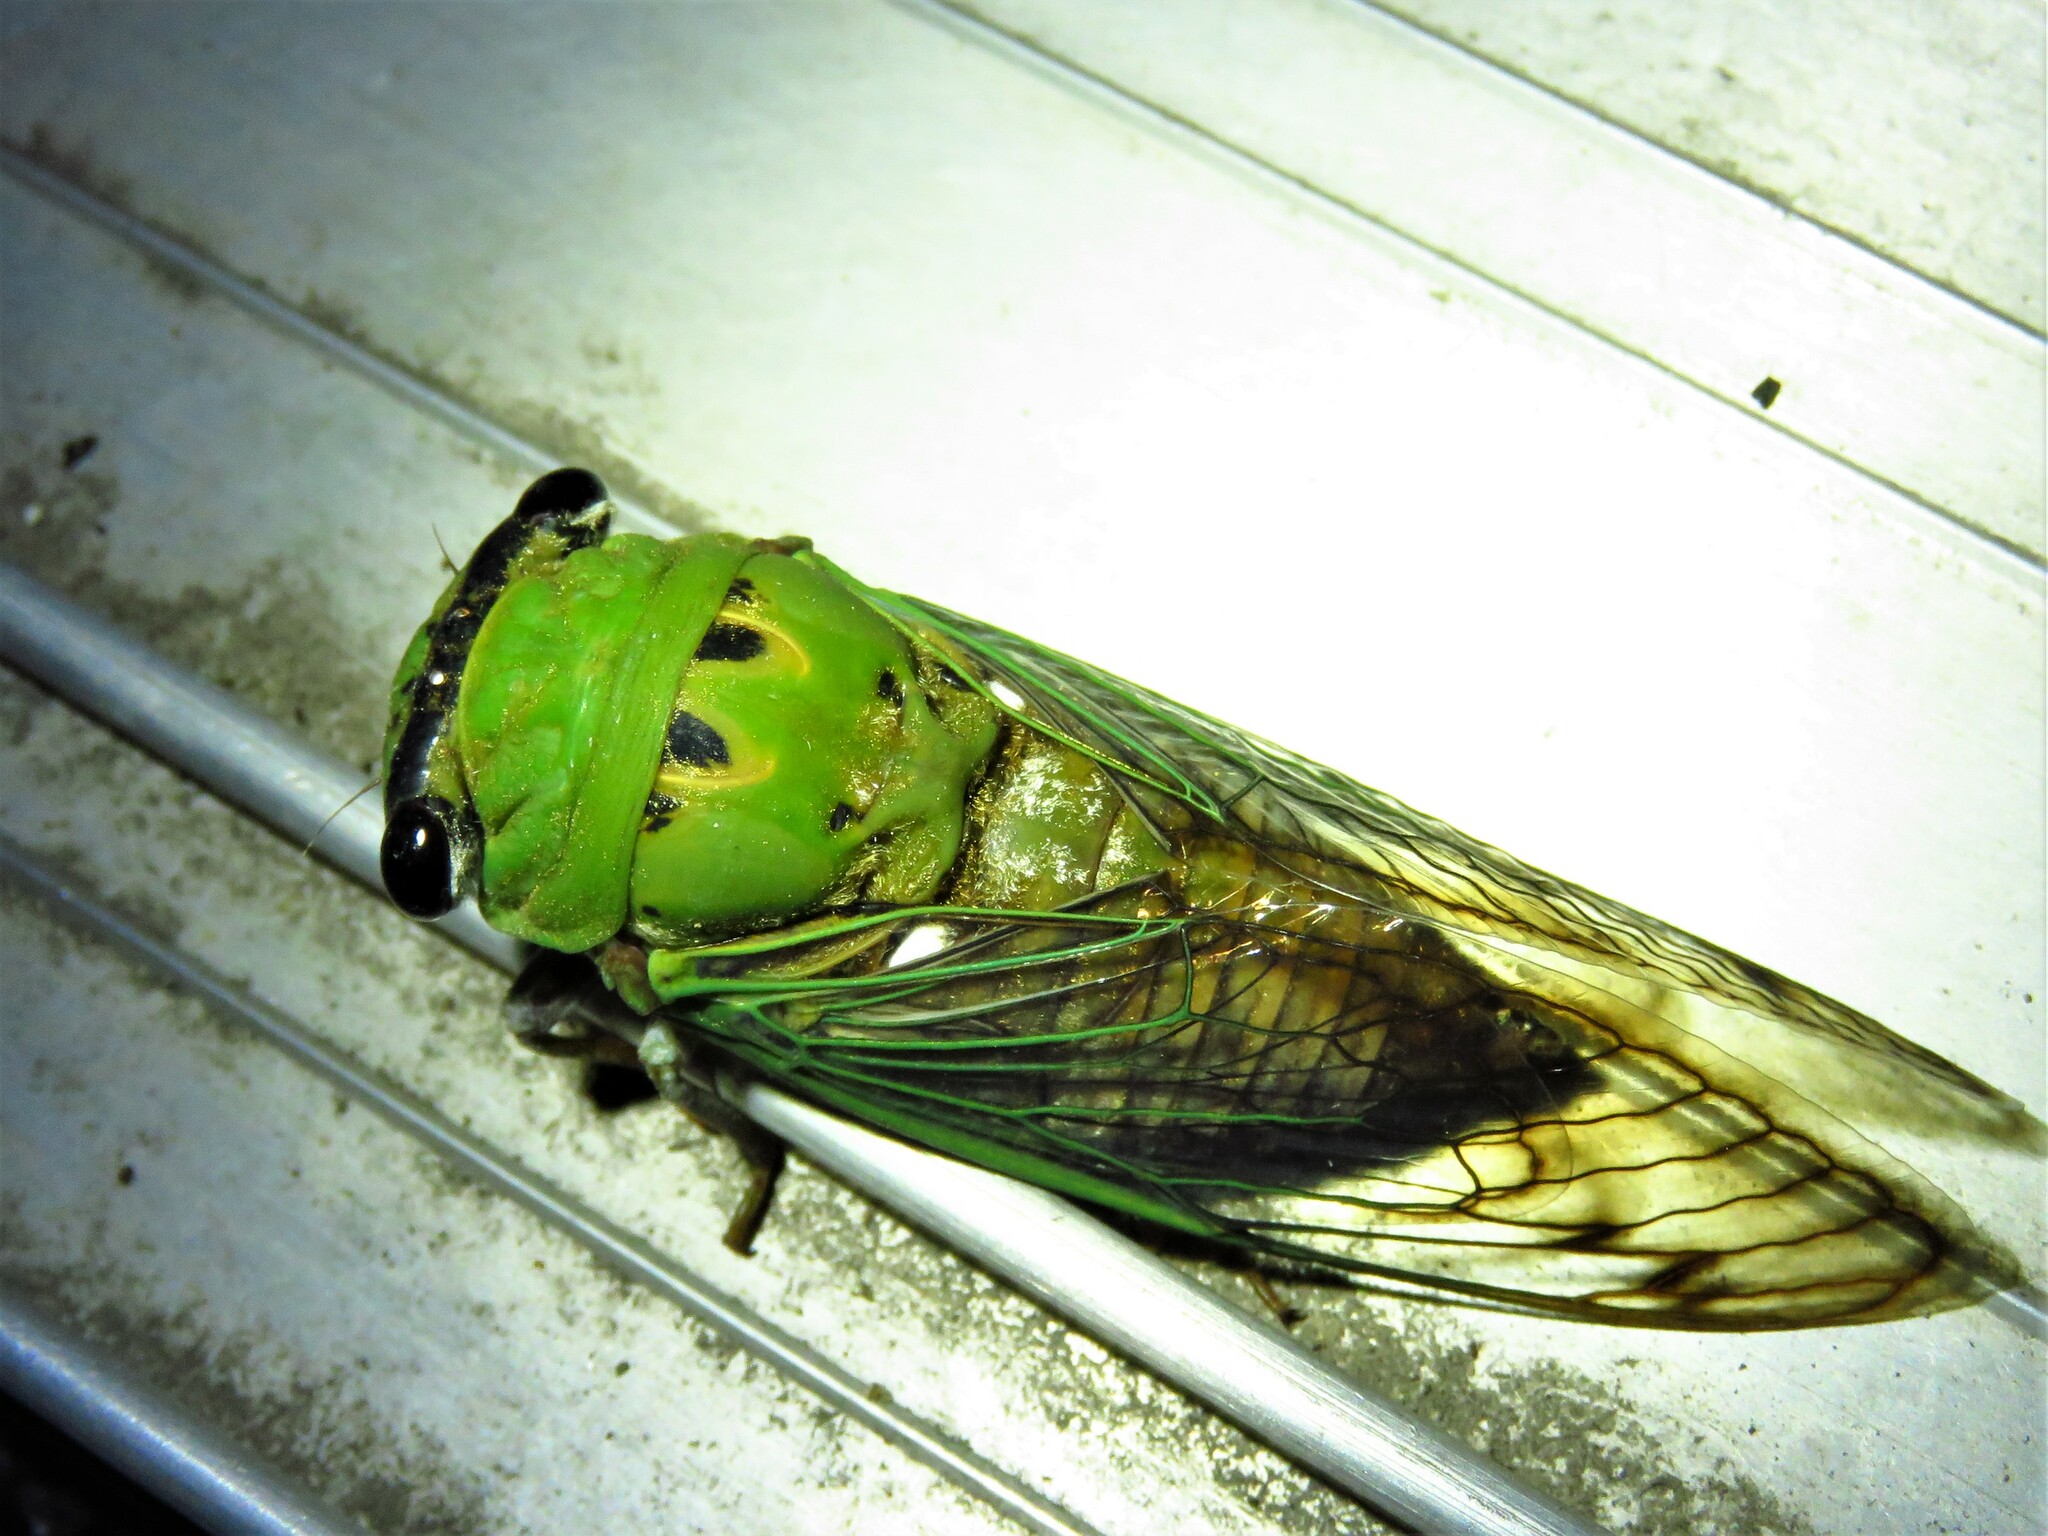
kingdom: Animalia
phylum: Arthropoda
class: Insecta
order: Hemiptera
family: Cicadidae
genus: Neotibicen
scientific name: Neotibicen superbus
